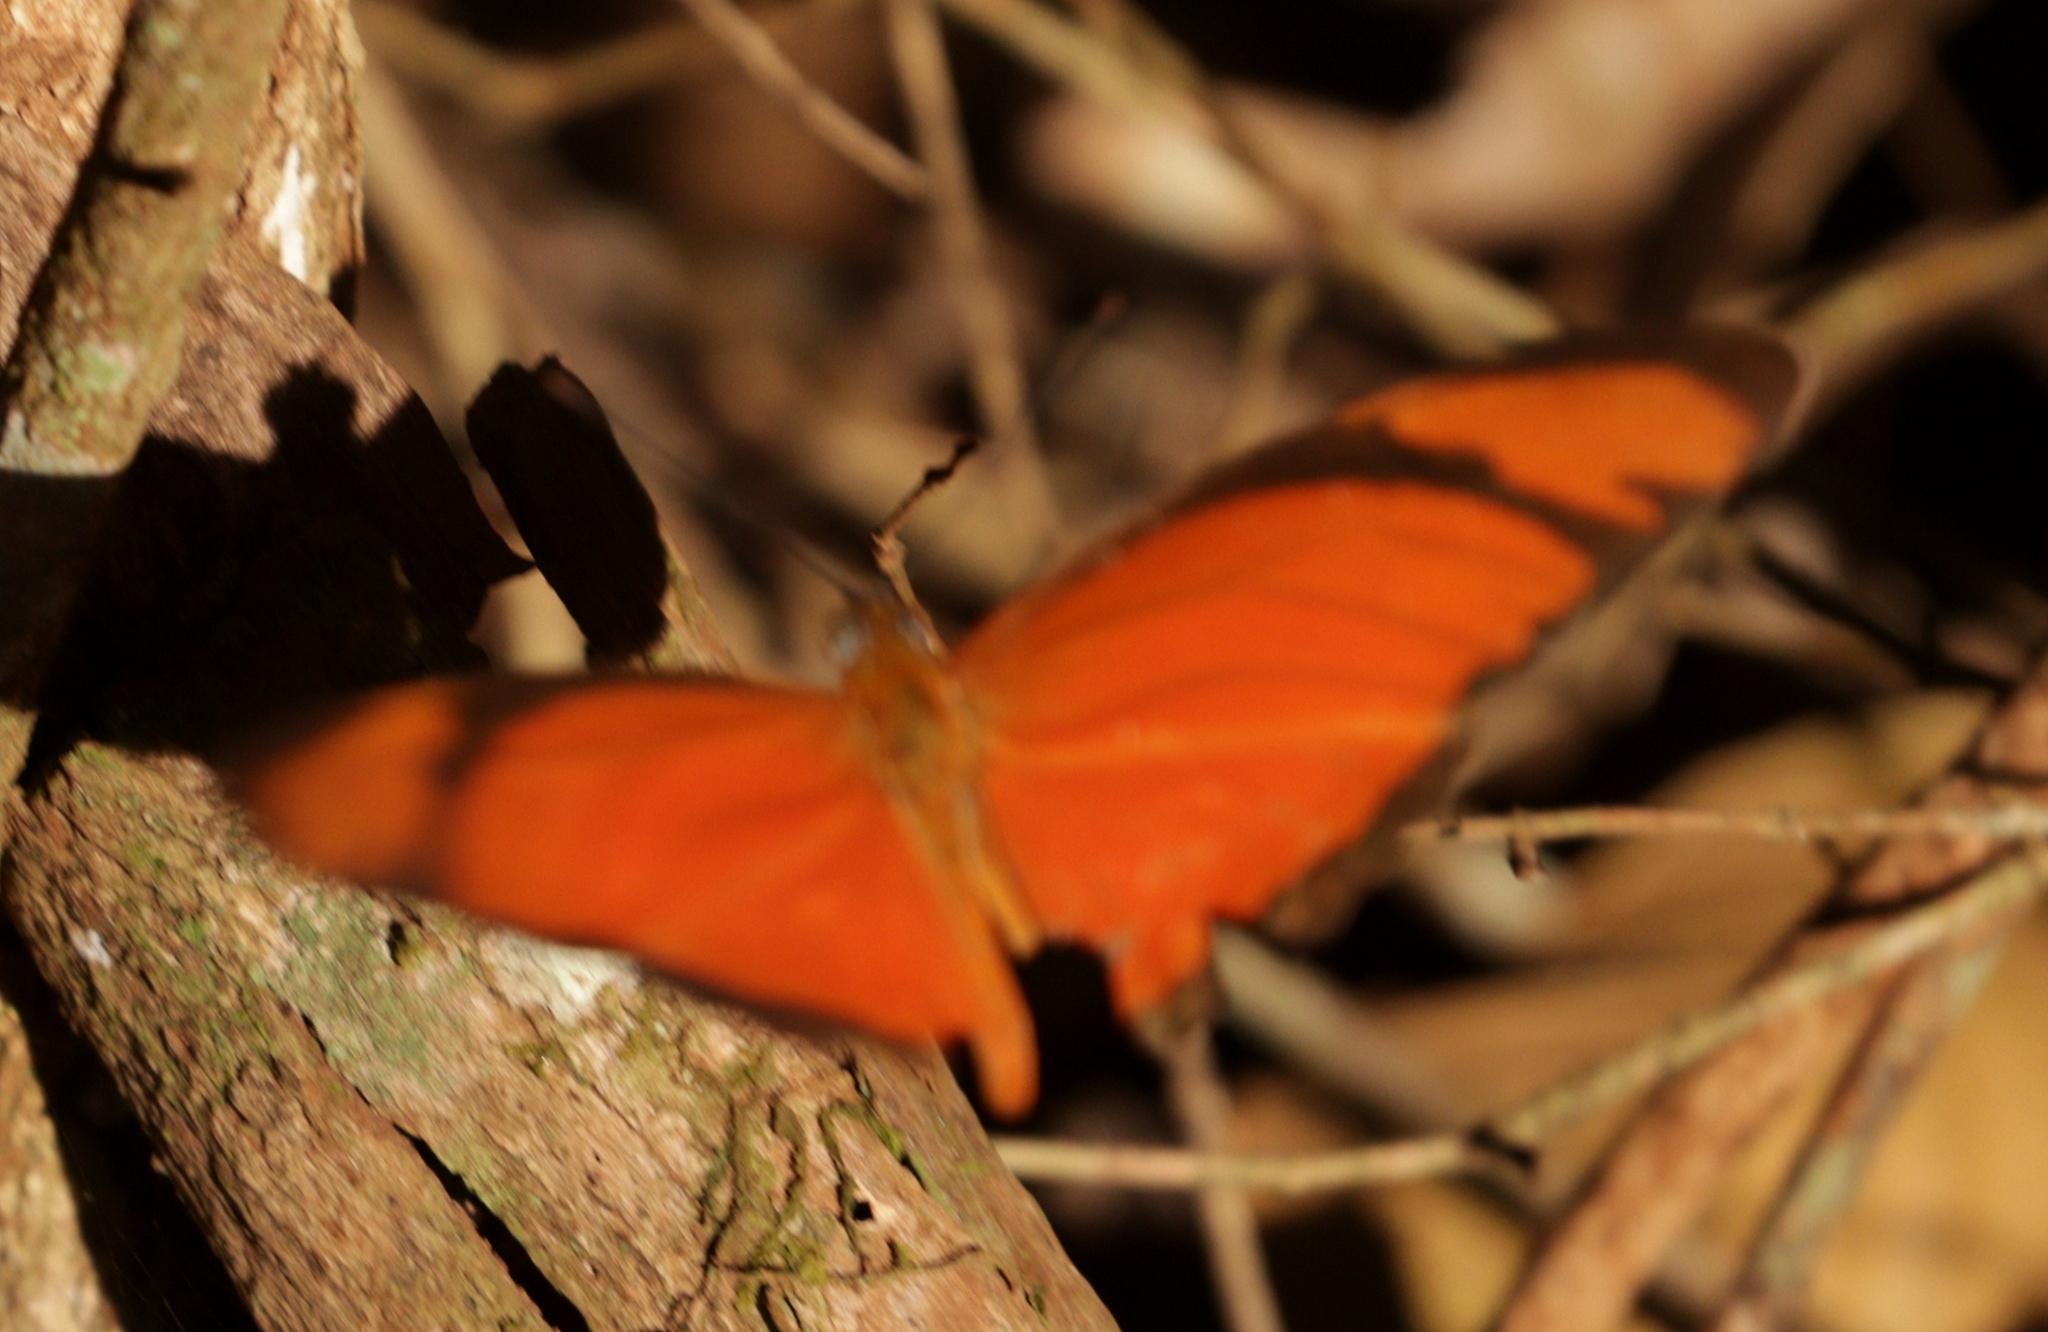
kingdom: Animalia
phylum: Arthropoda
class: Insecta
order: Lepidoptera
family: Nymphalidae
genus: Dryas
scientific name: Dryas iulia
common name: Flambeau
